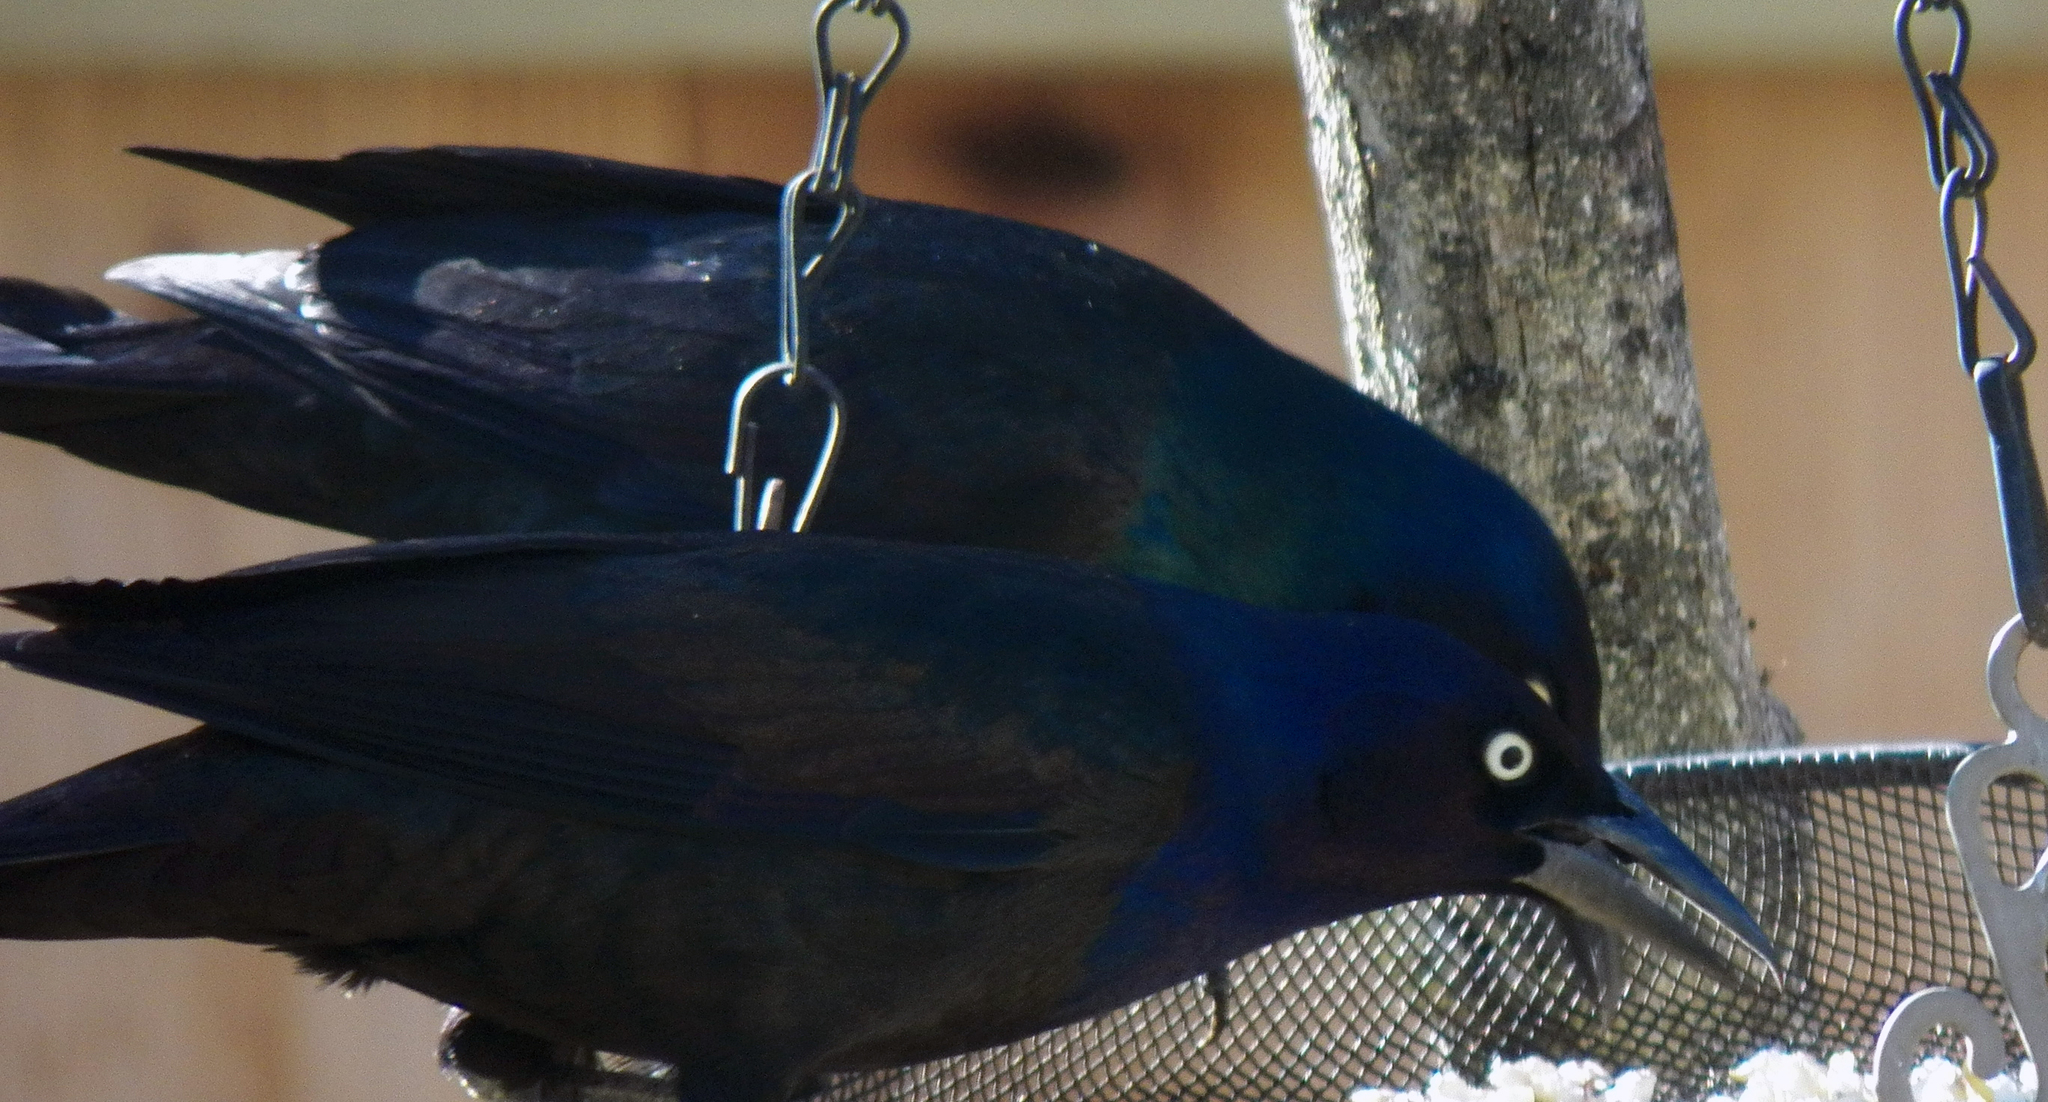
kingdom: Animalia
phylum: Chordata
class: Aves
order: Passeriformes
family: Icteridae
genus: Quiscalus
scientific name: Quiscalus quiscula
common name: Common grackle
